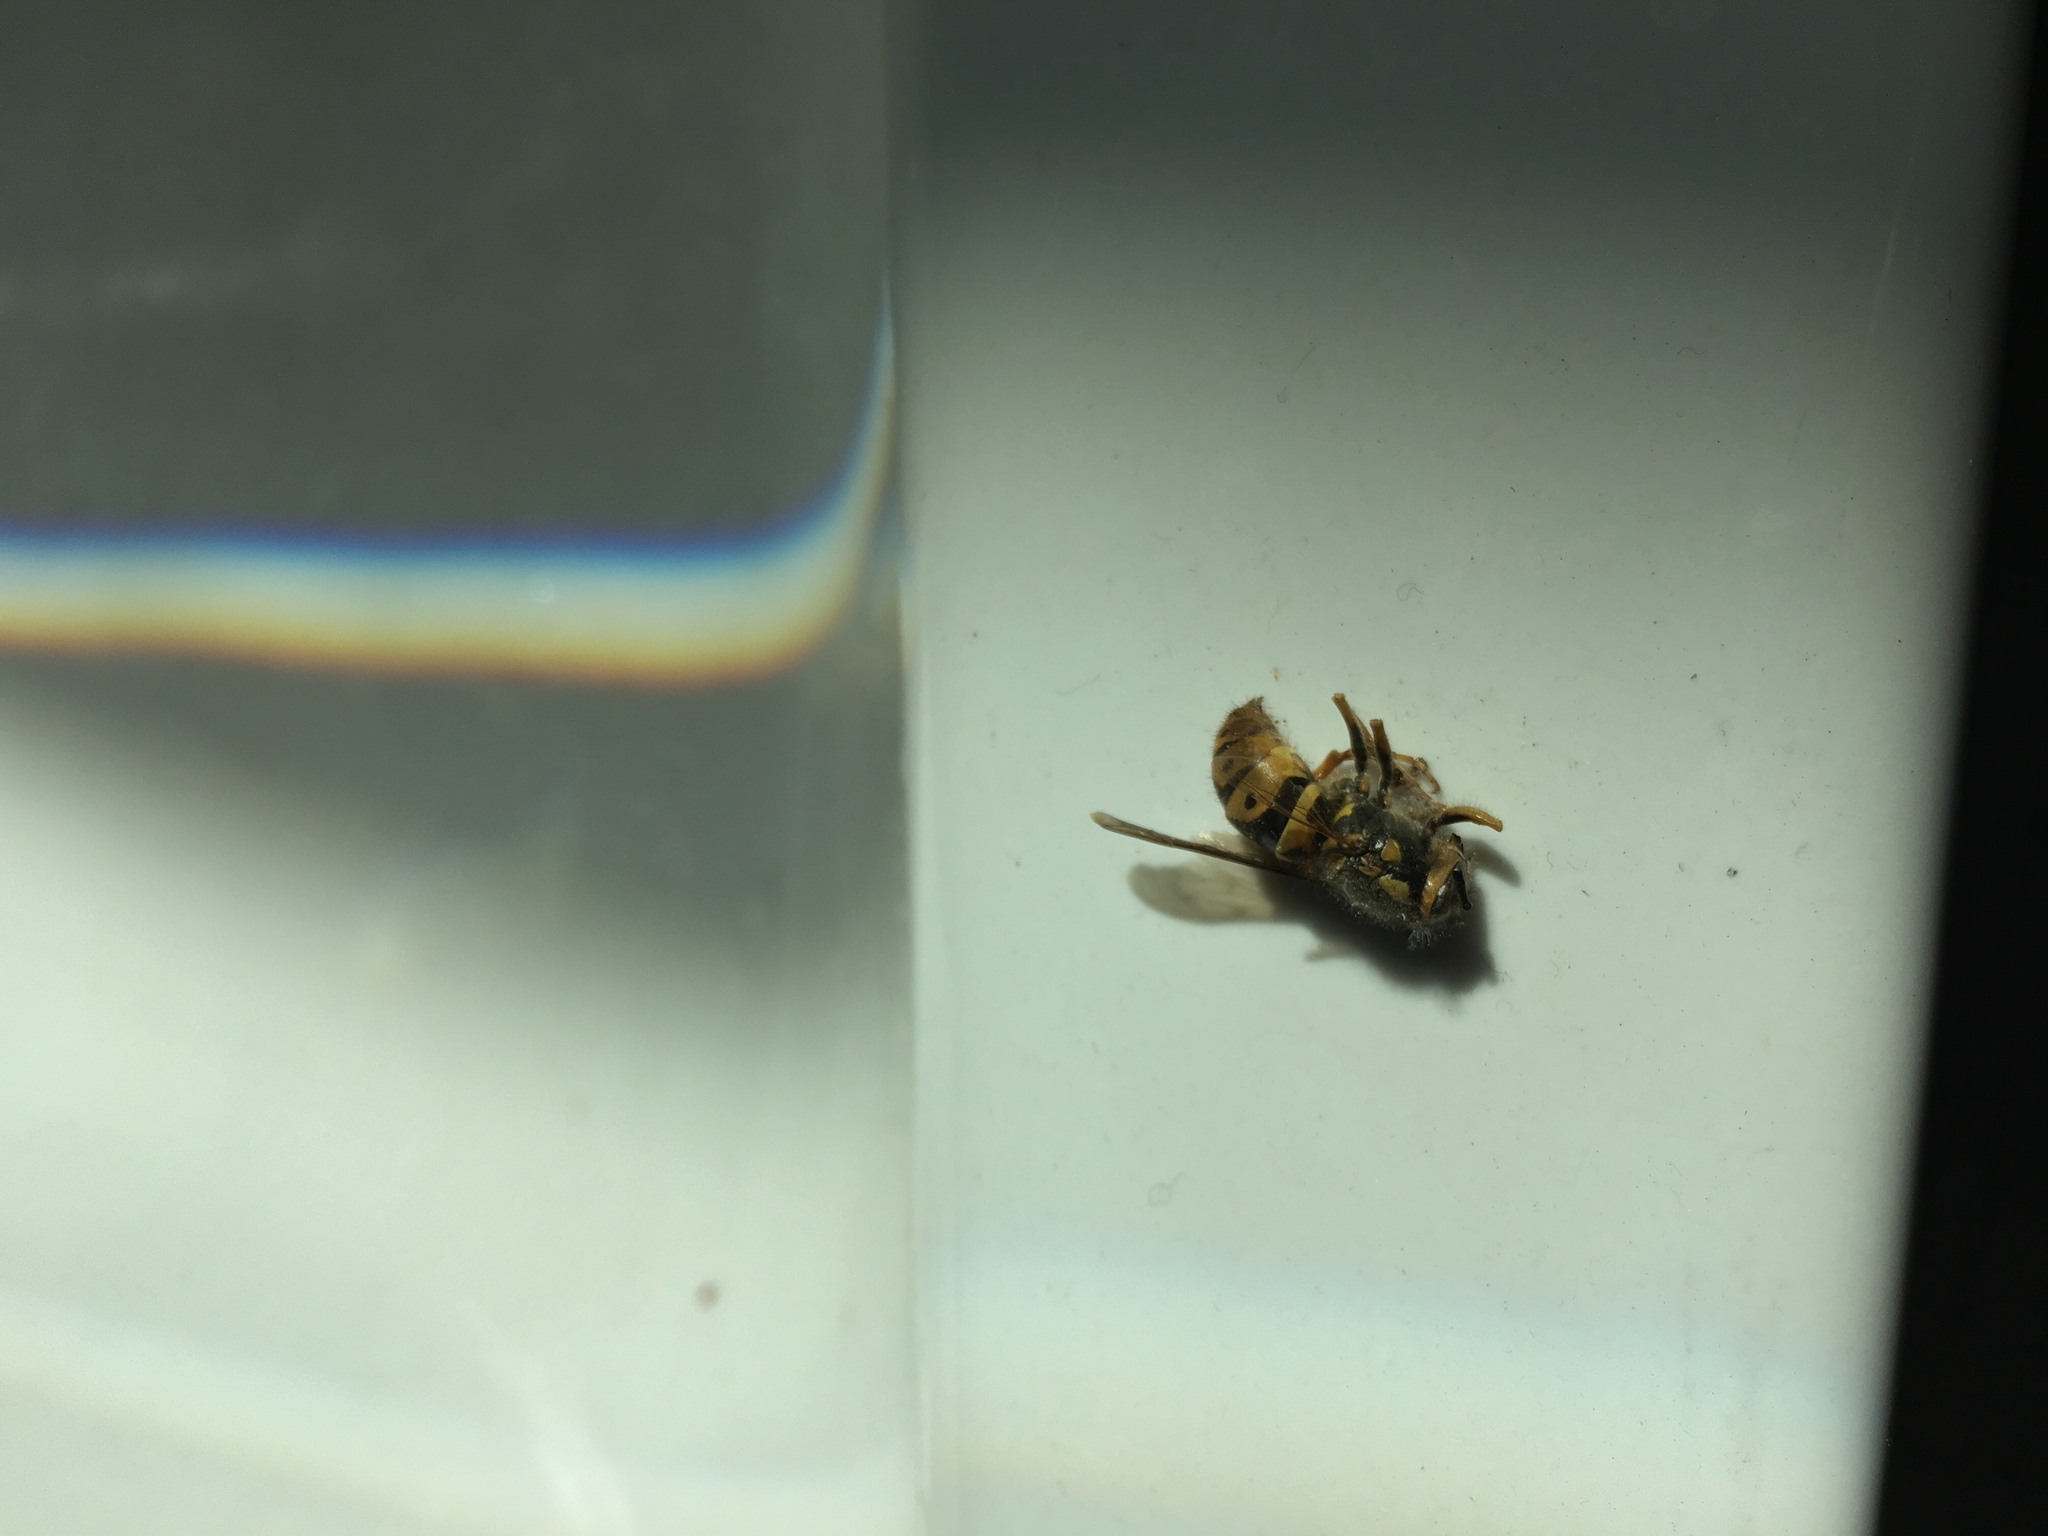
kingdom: Animalia
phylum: Arthropoda
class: Insecta
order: Hymenoptera
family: Vespidae
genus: Vespula
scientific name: Vespula pensylvanica
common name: Western yellowjacket
